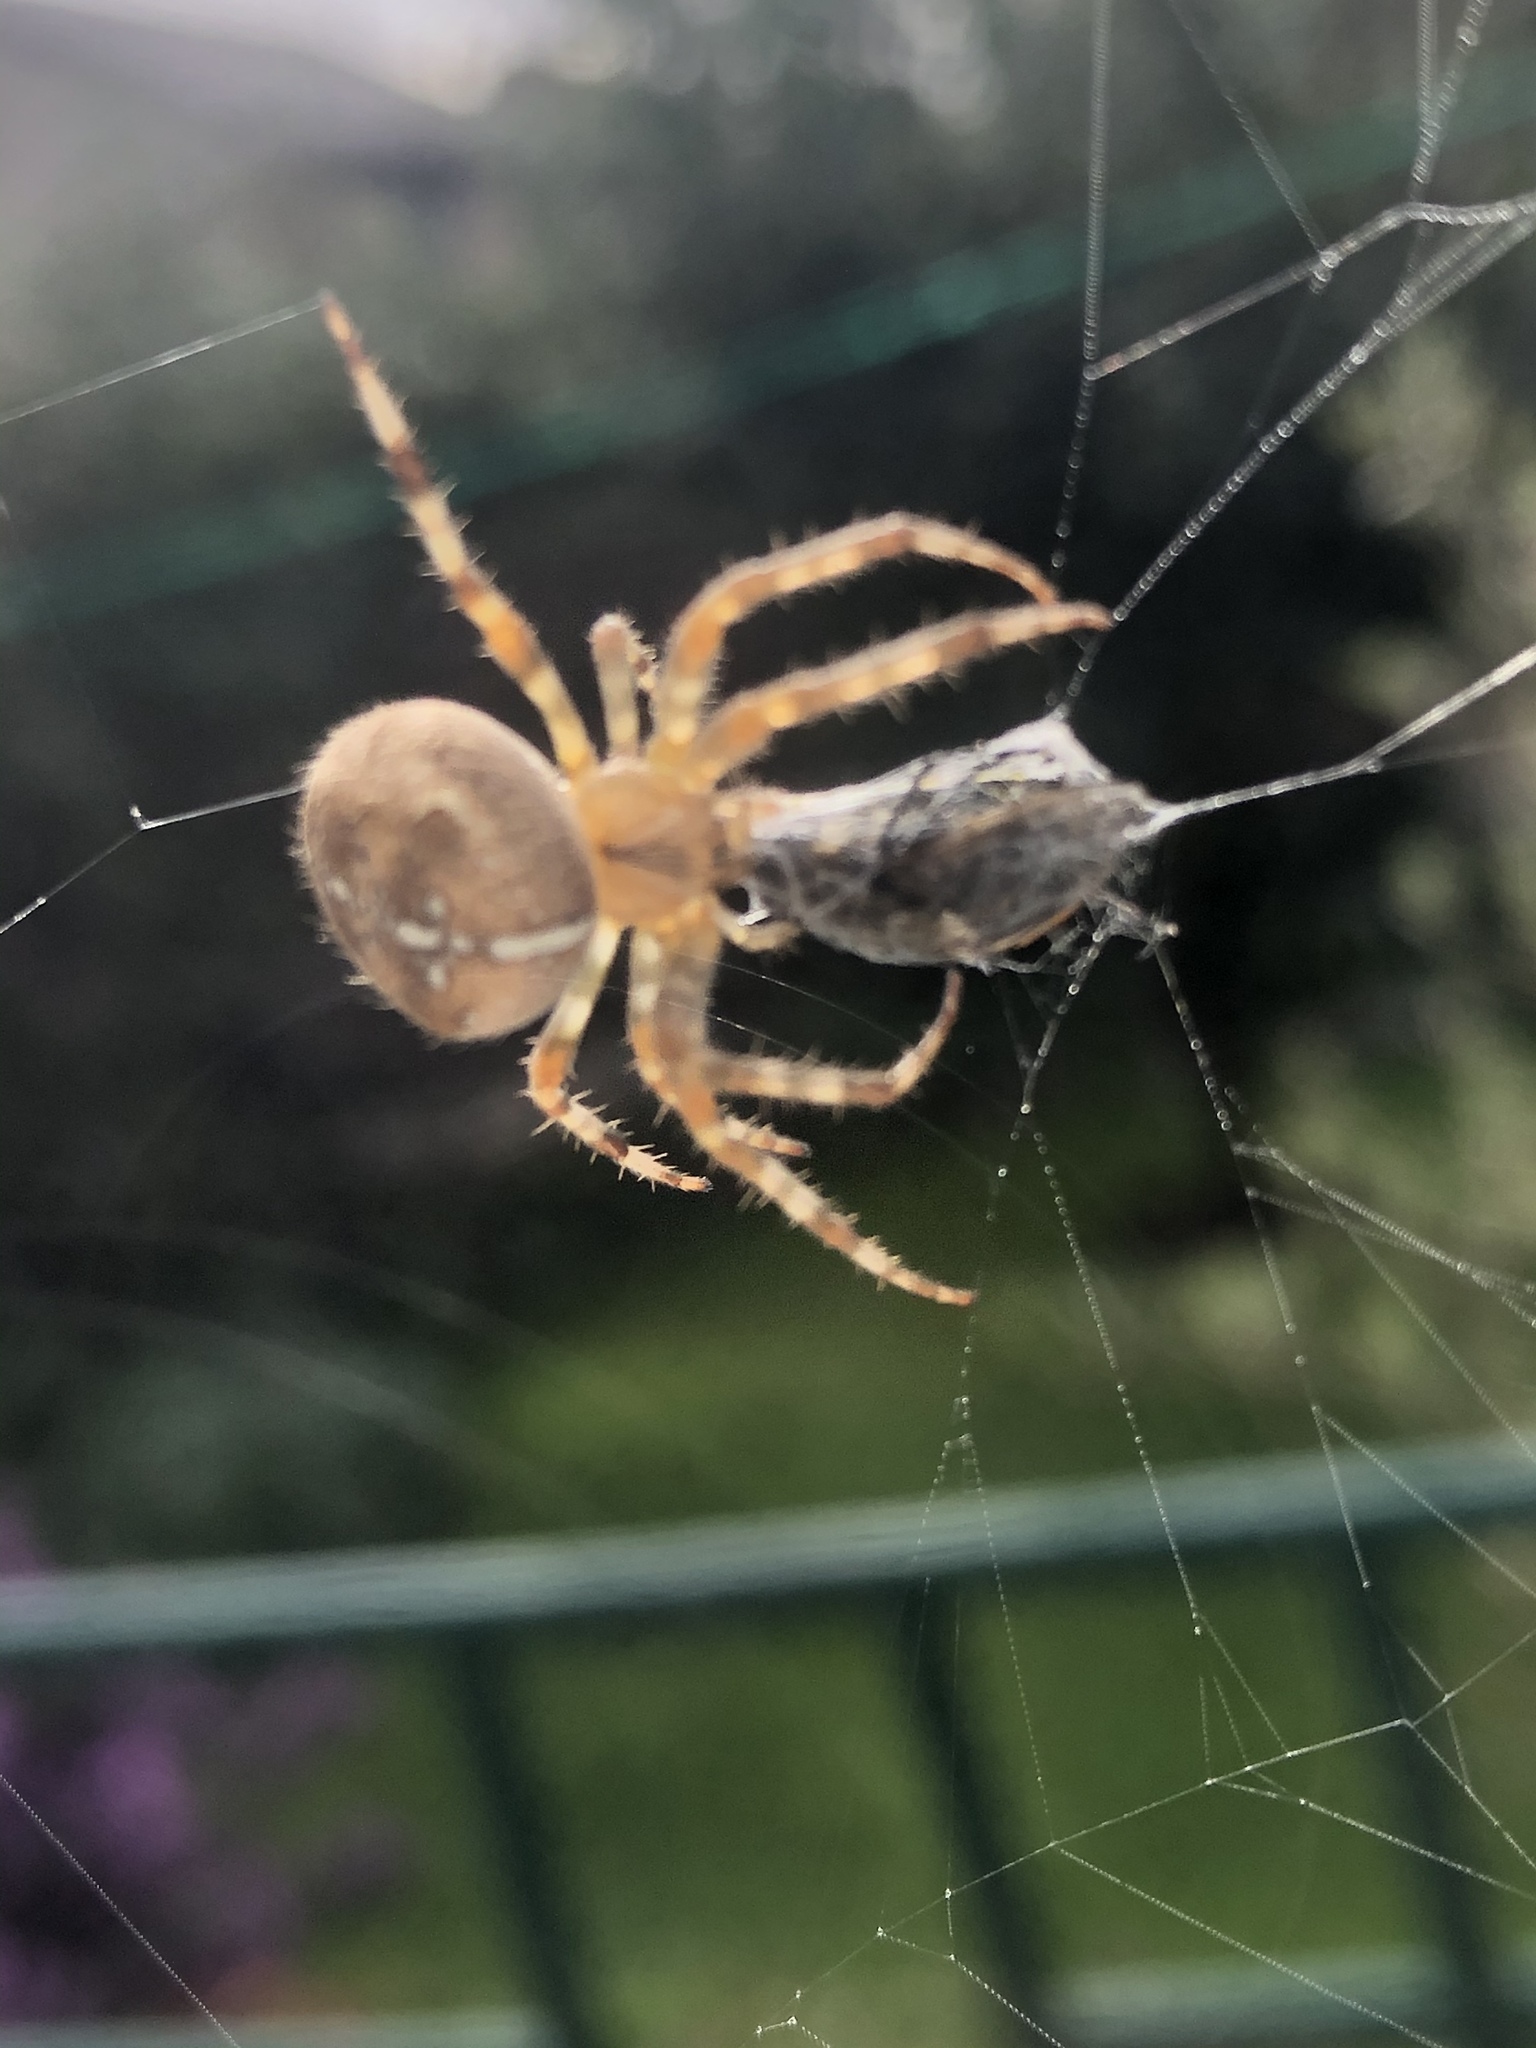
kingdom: Animalia
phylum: Arthropoda
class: Arachnida
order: Araneae
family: Araneidae
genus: Araneus
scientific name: Araneus diadematus
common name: Cross orbweaver
